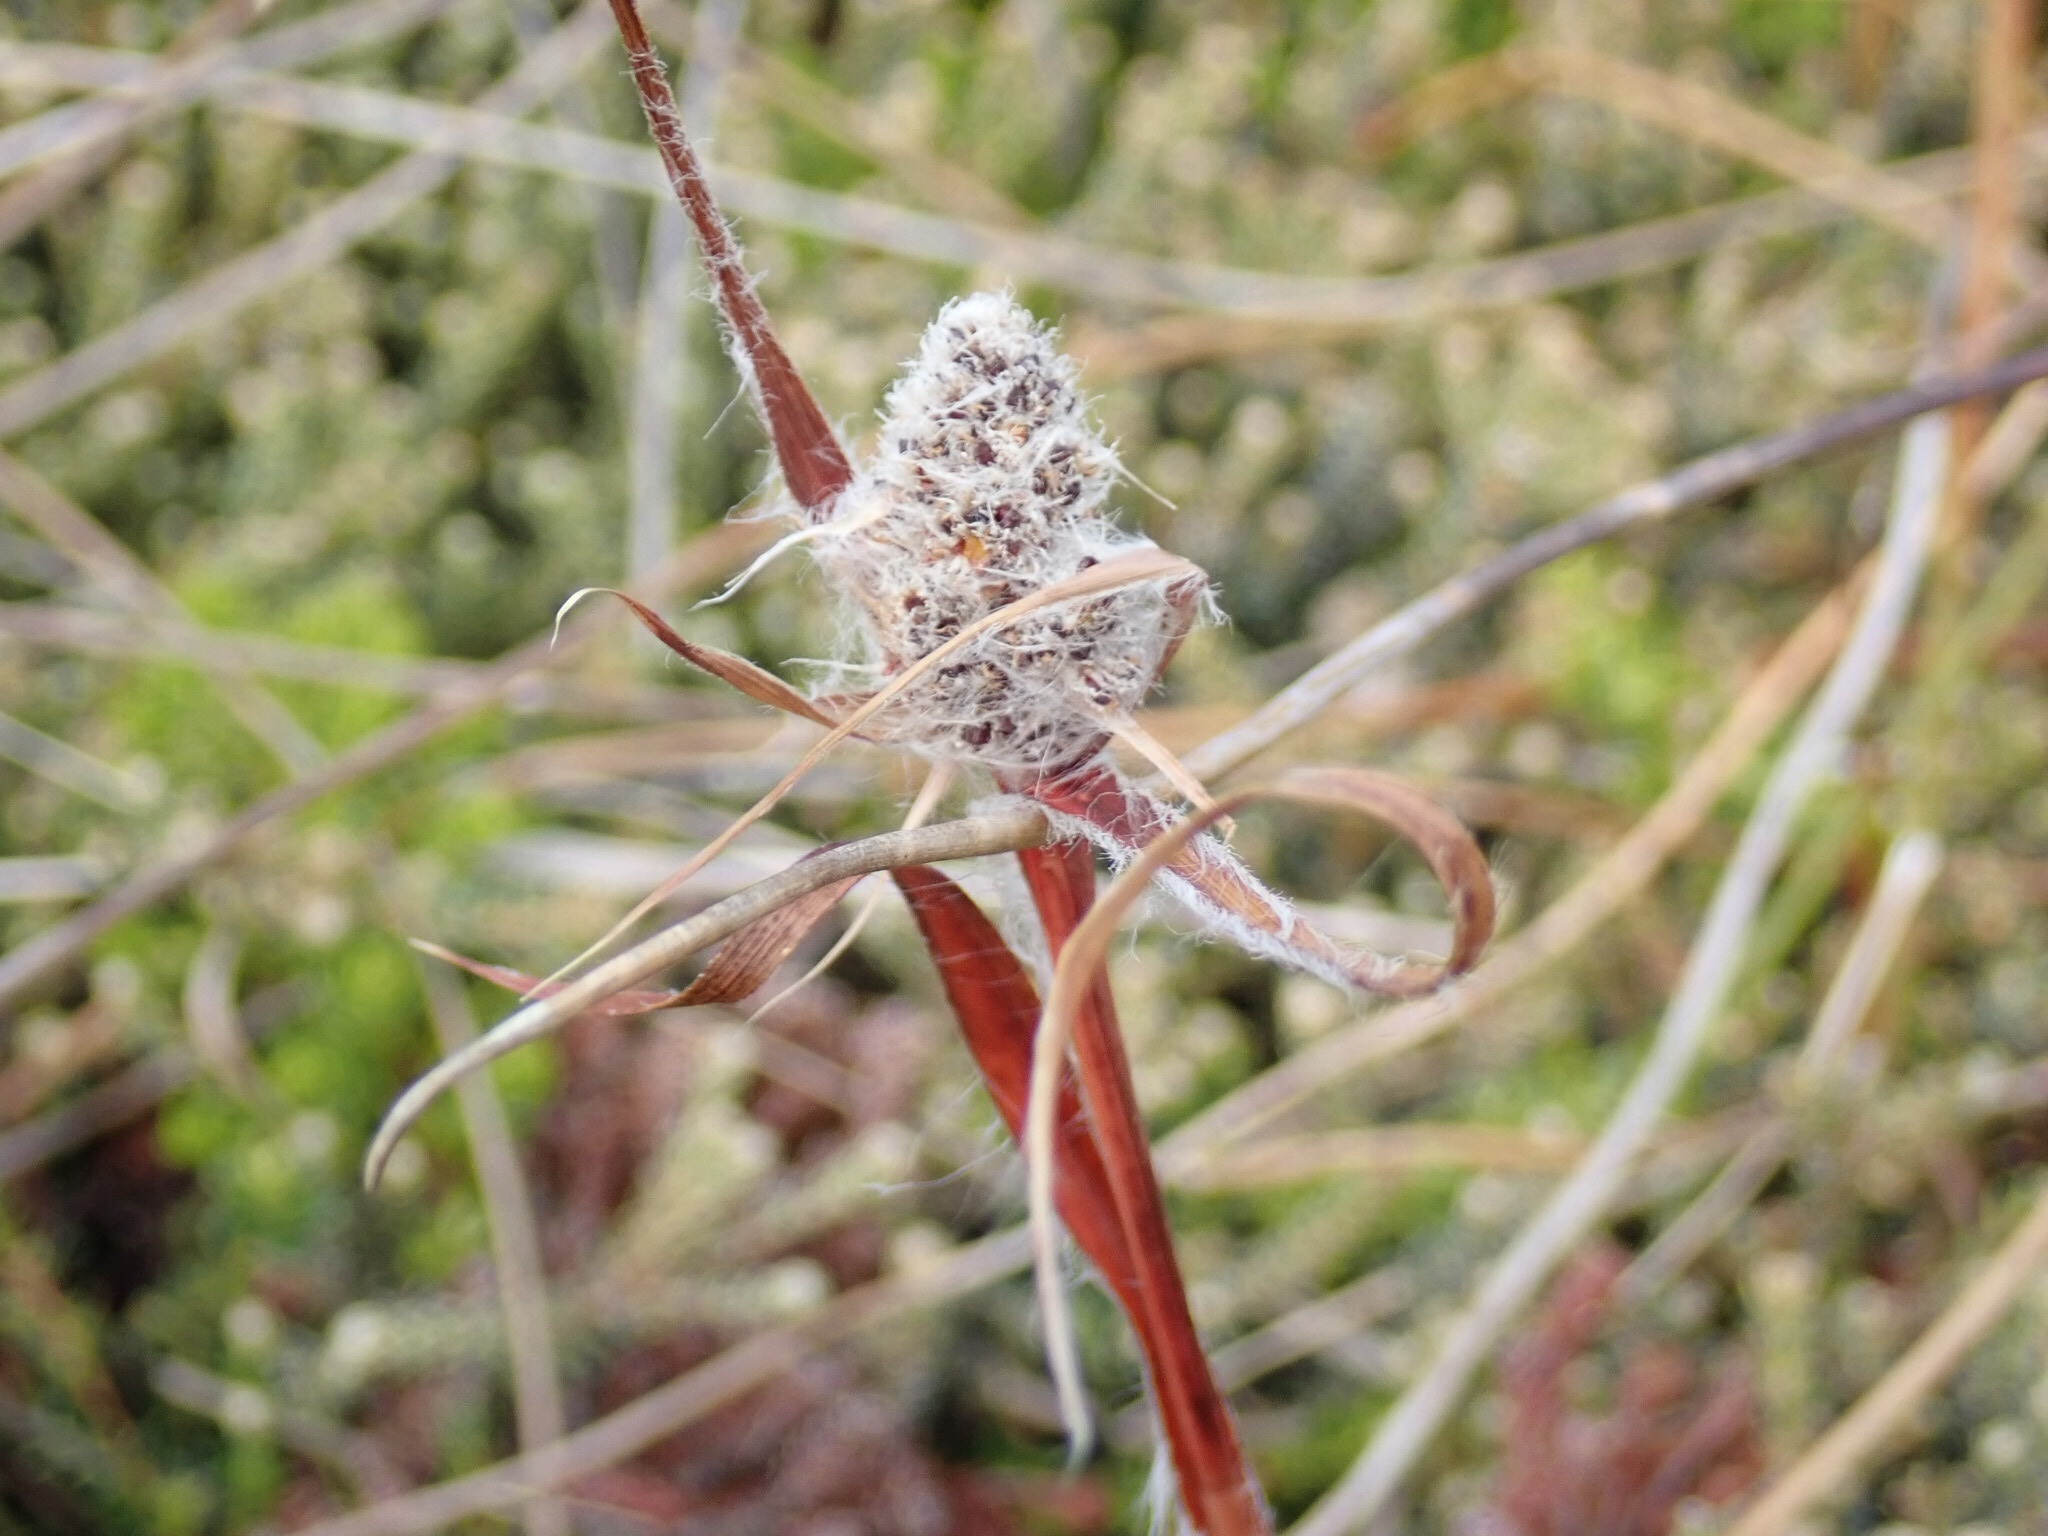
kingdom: Plantae
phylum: Tracheophyta
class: Liliopsida
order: Poales
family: Juncaceae
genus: Luzula
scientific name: Luzula alopecurus
